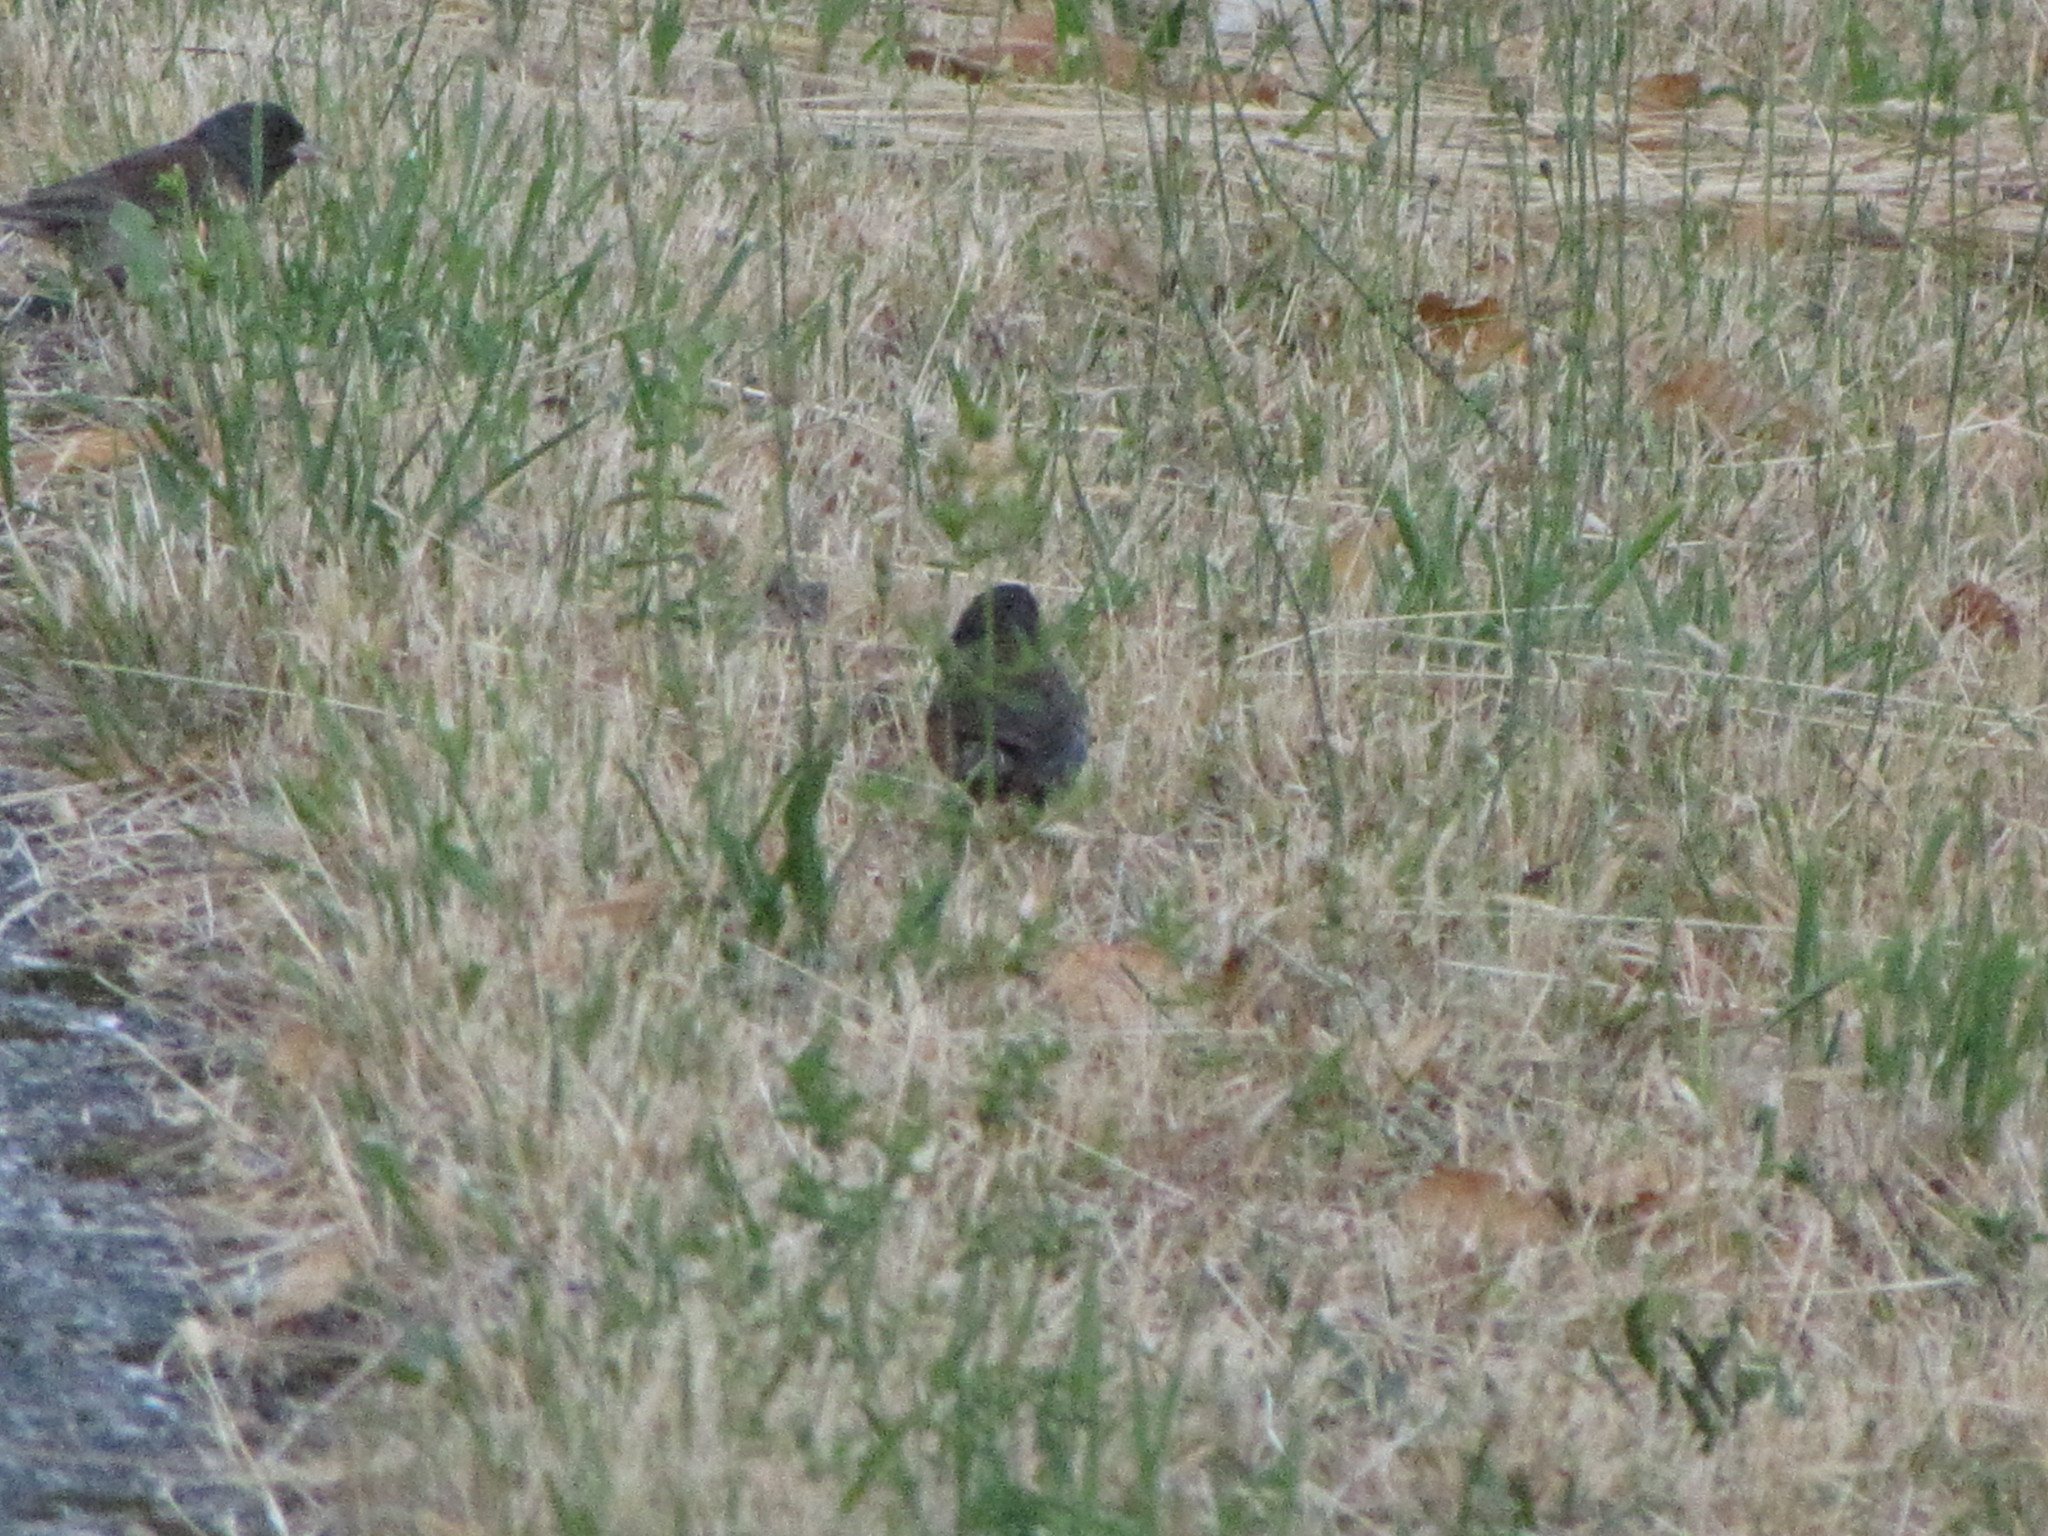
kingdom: Animalia
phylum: Chordata
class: Aves
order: Passeriformes
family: Passerellidae
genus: Junco
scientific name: Junco hyemalis
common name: Dark-eyed junco
